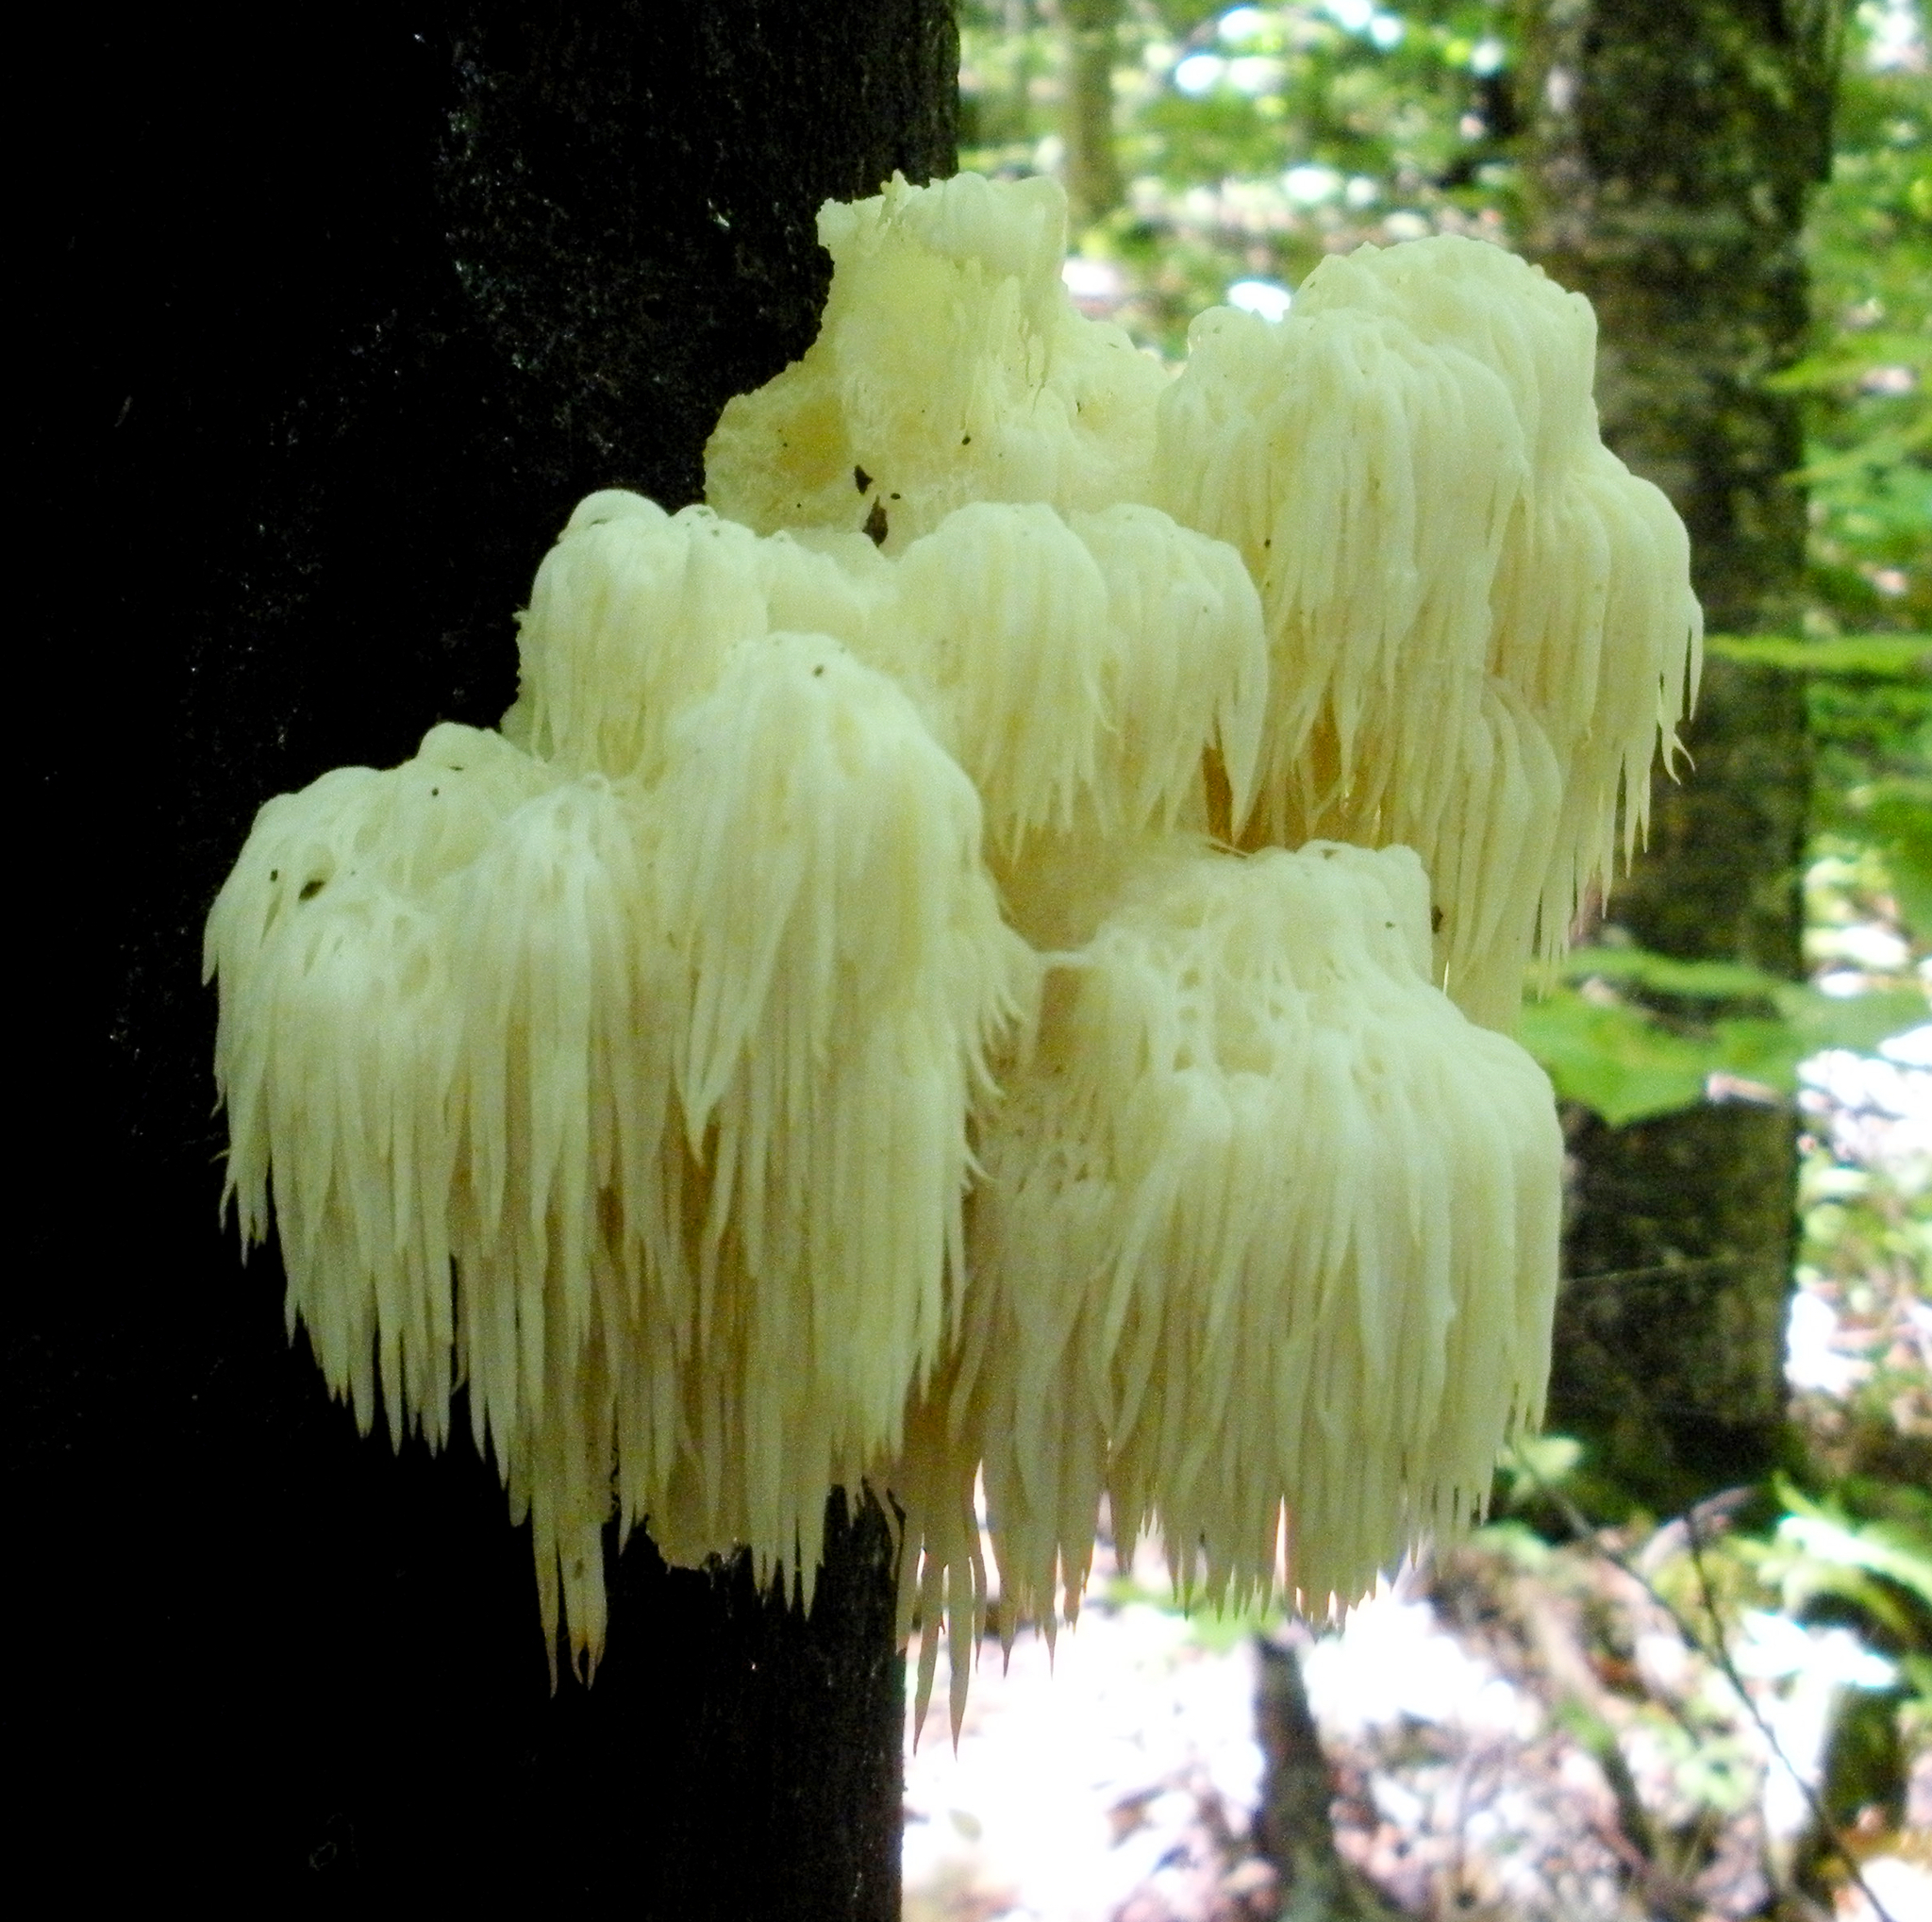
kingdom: Fungi
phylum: Basidiomycota
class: Agaricomycetes
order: Russulales
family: Hericiaceae
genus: Hericium
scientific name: Hericium americanum
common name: Bear's head tooth
